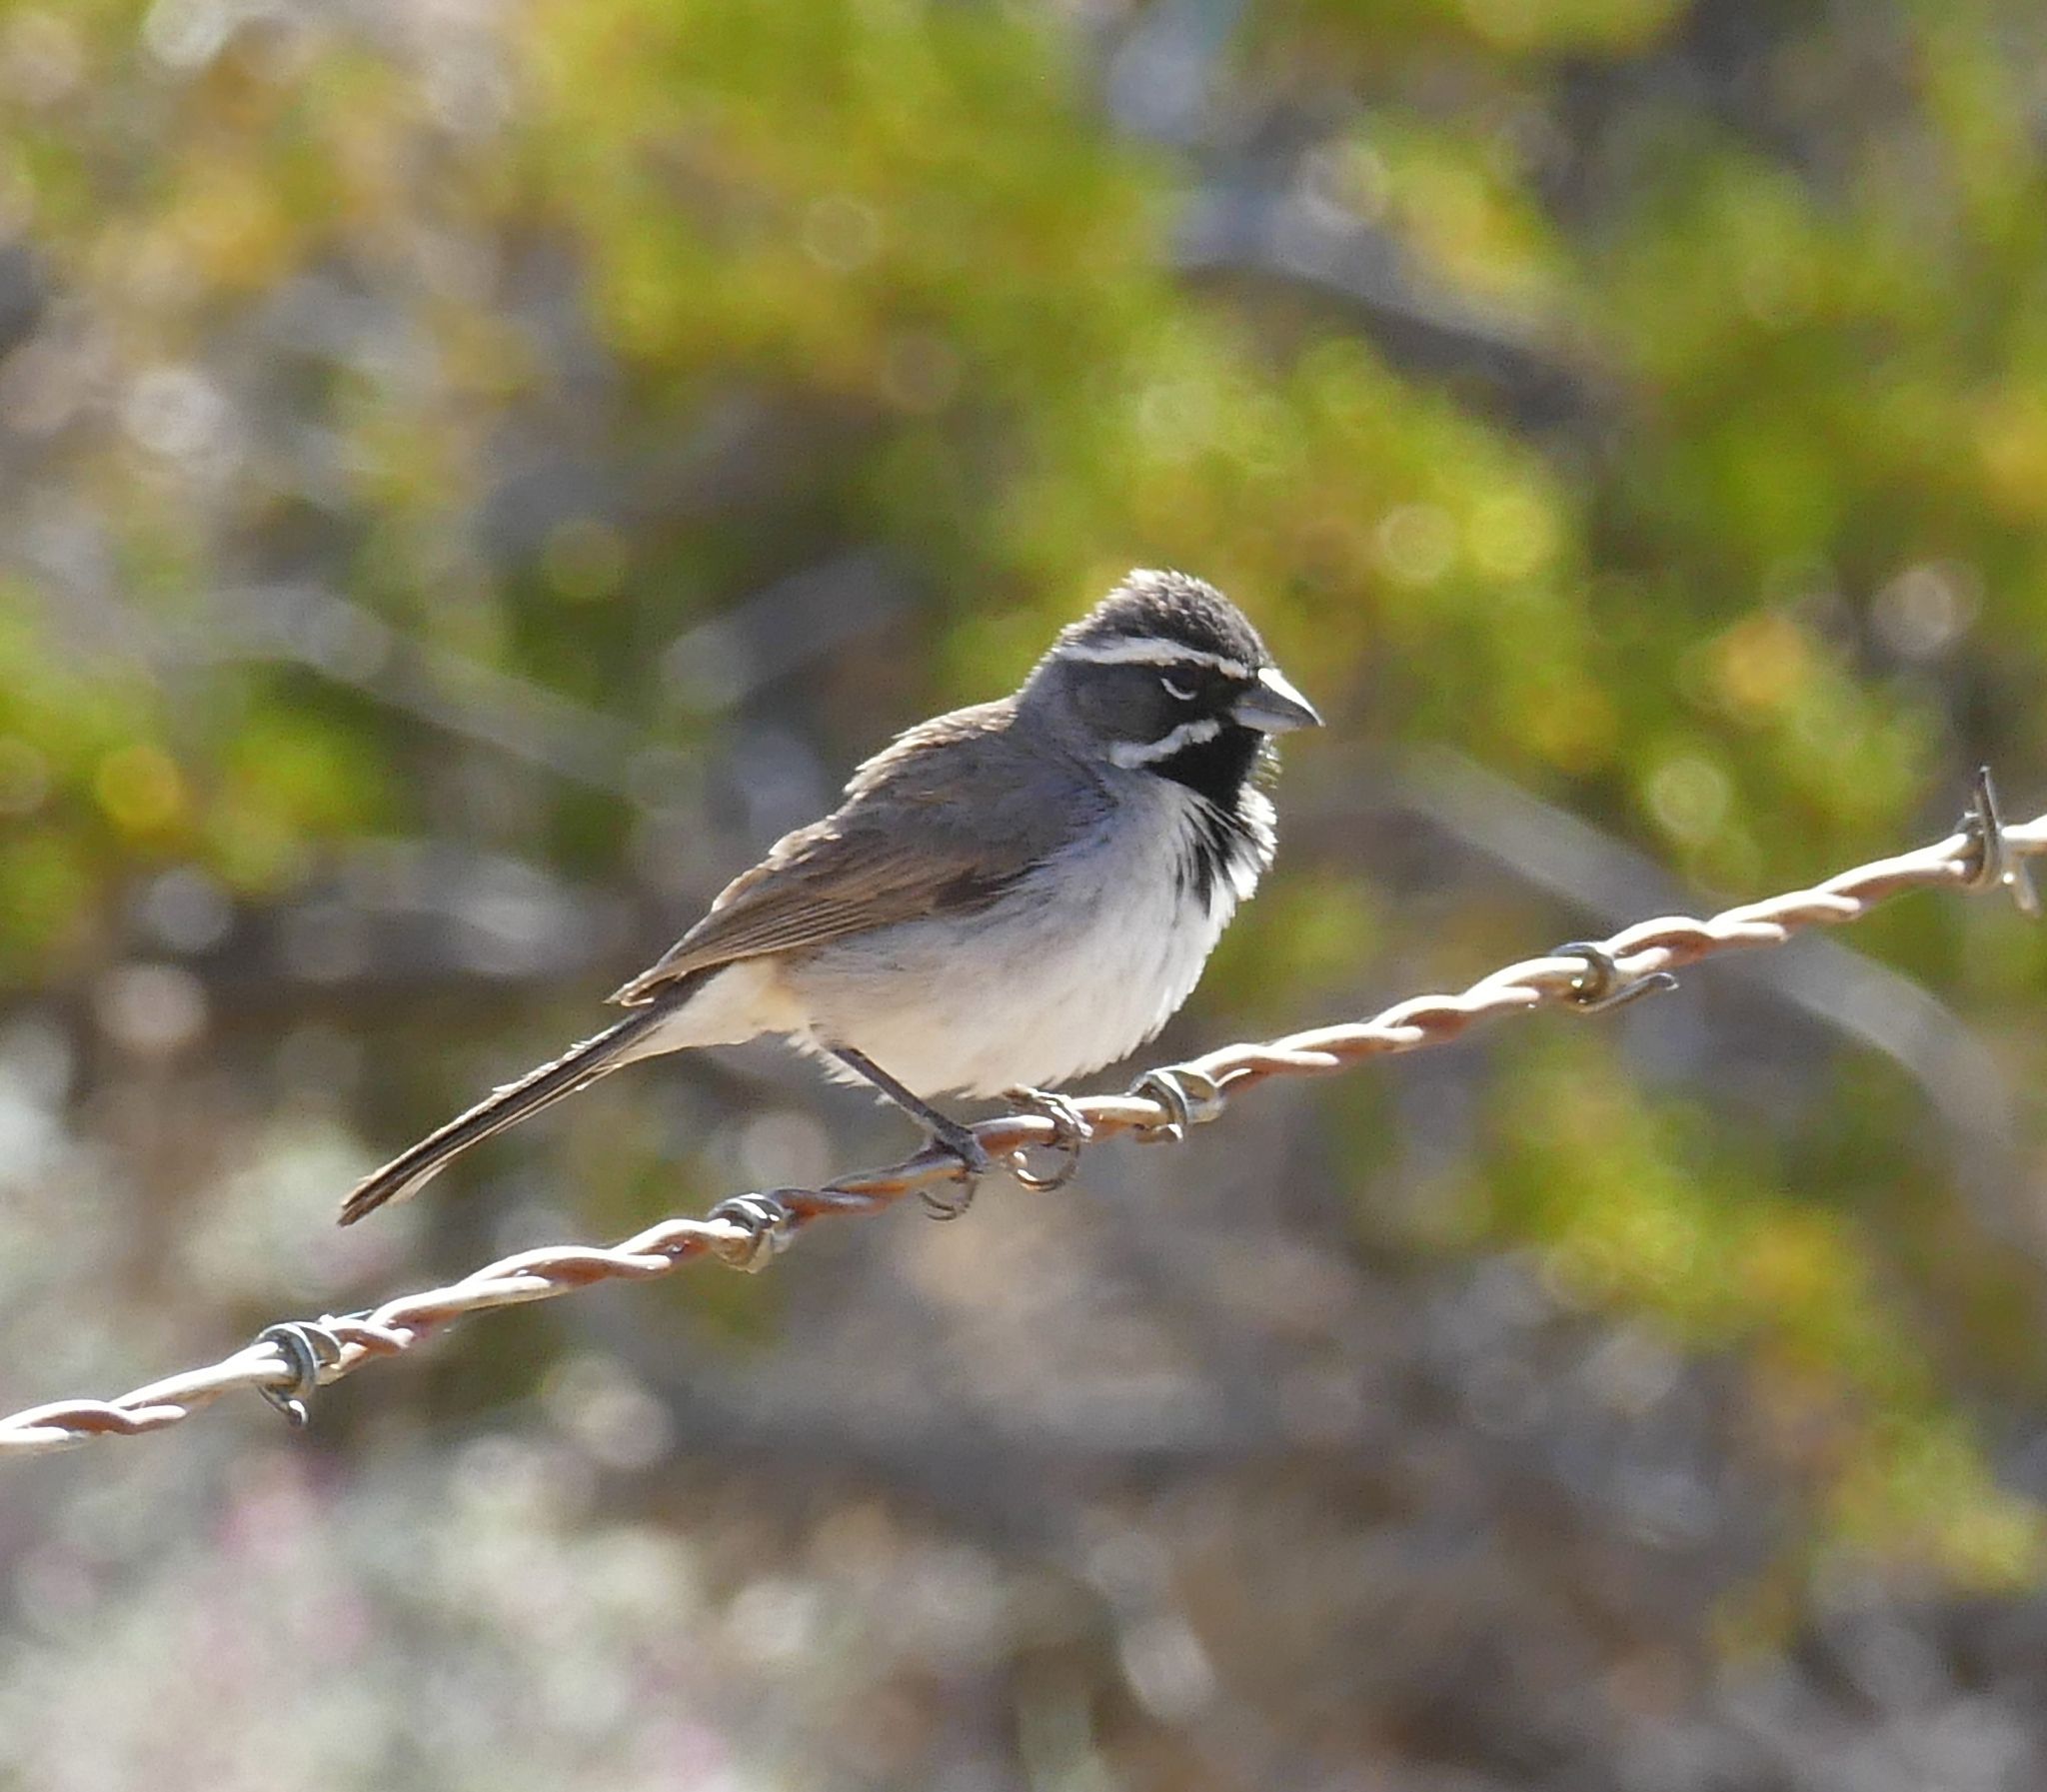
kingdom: Animalia
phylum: Chordata
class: Aves
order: Passeriformes
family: Passerellidae
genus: Amphispiza
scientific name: Amphispiza bilineata
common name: Black-throated sparrow
